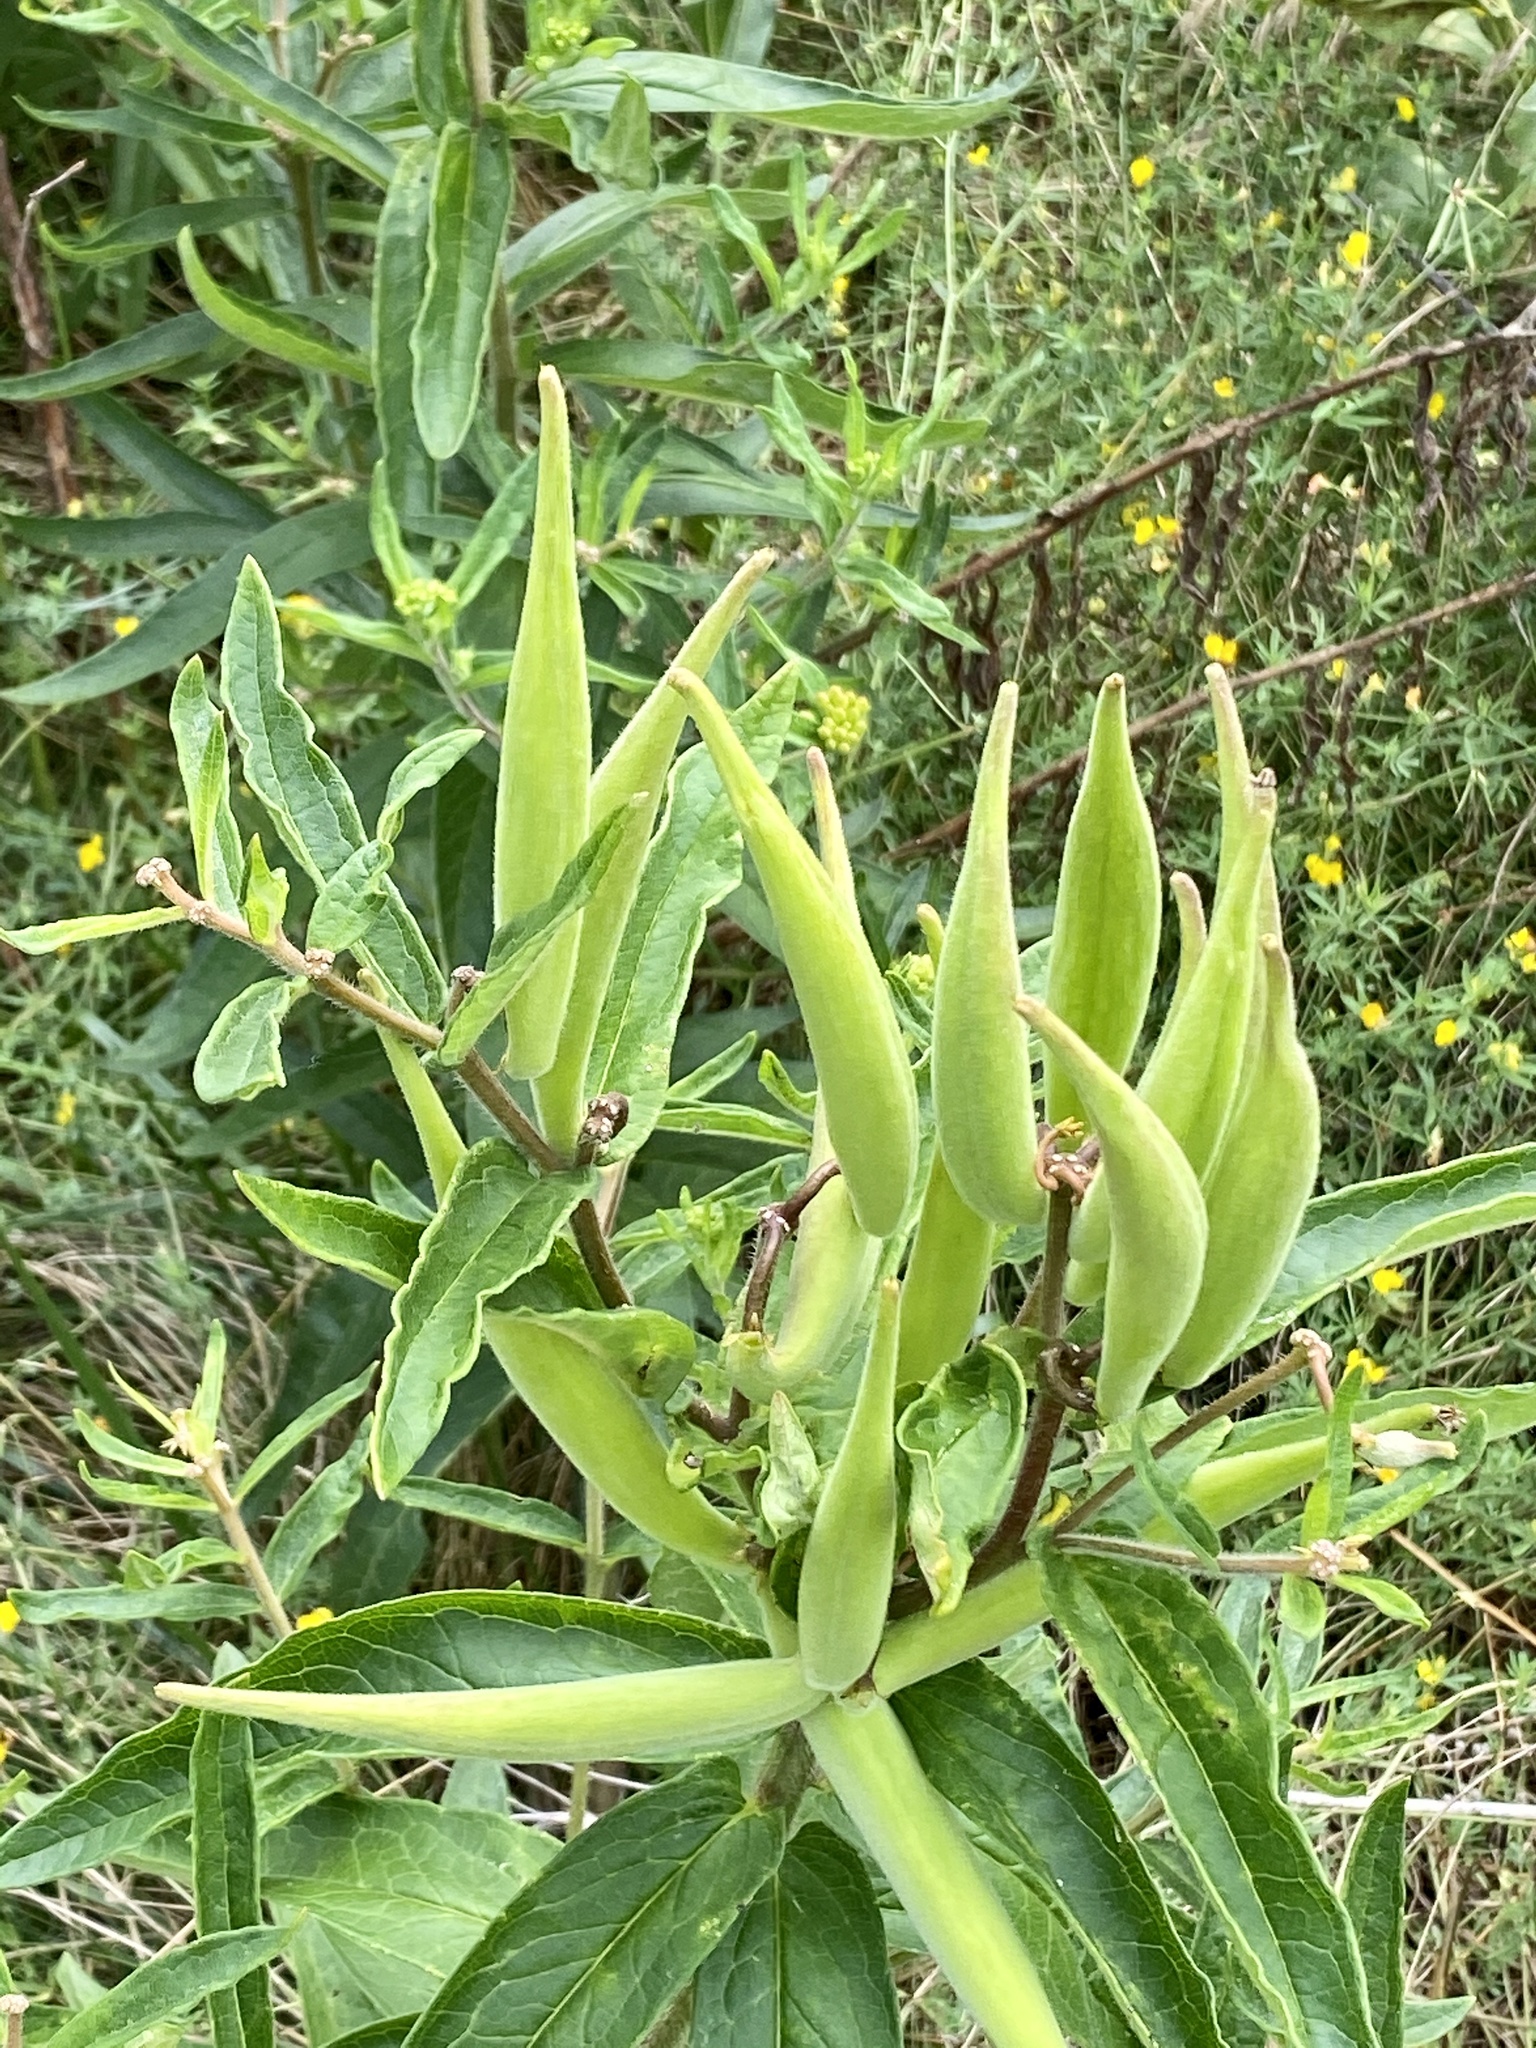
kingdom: Plantae
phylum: Tracheophyta
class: Magnoliopsida
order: Gentianales
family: Apocynaceae
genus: Asclepias
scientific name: Asclepias tuberosa
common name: Butterfly milkweed
